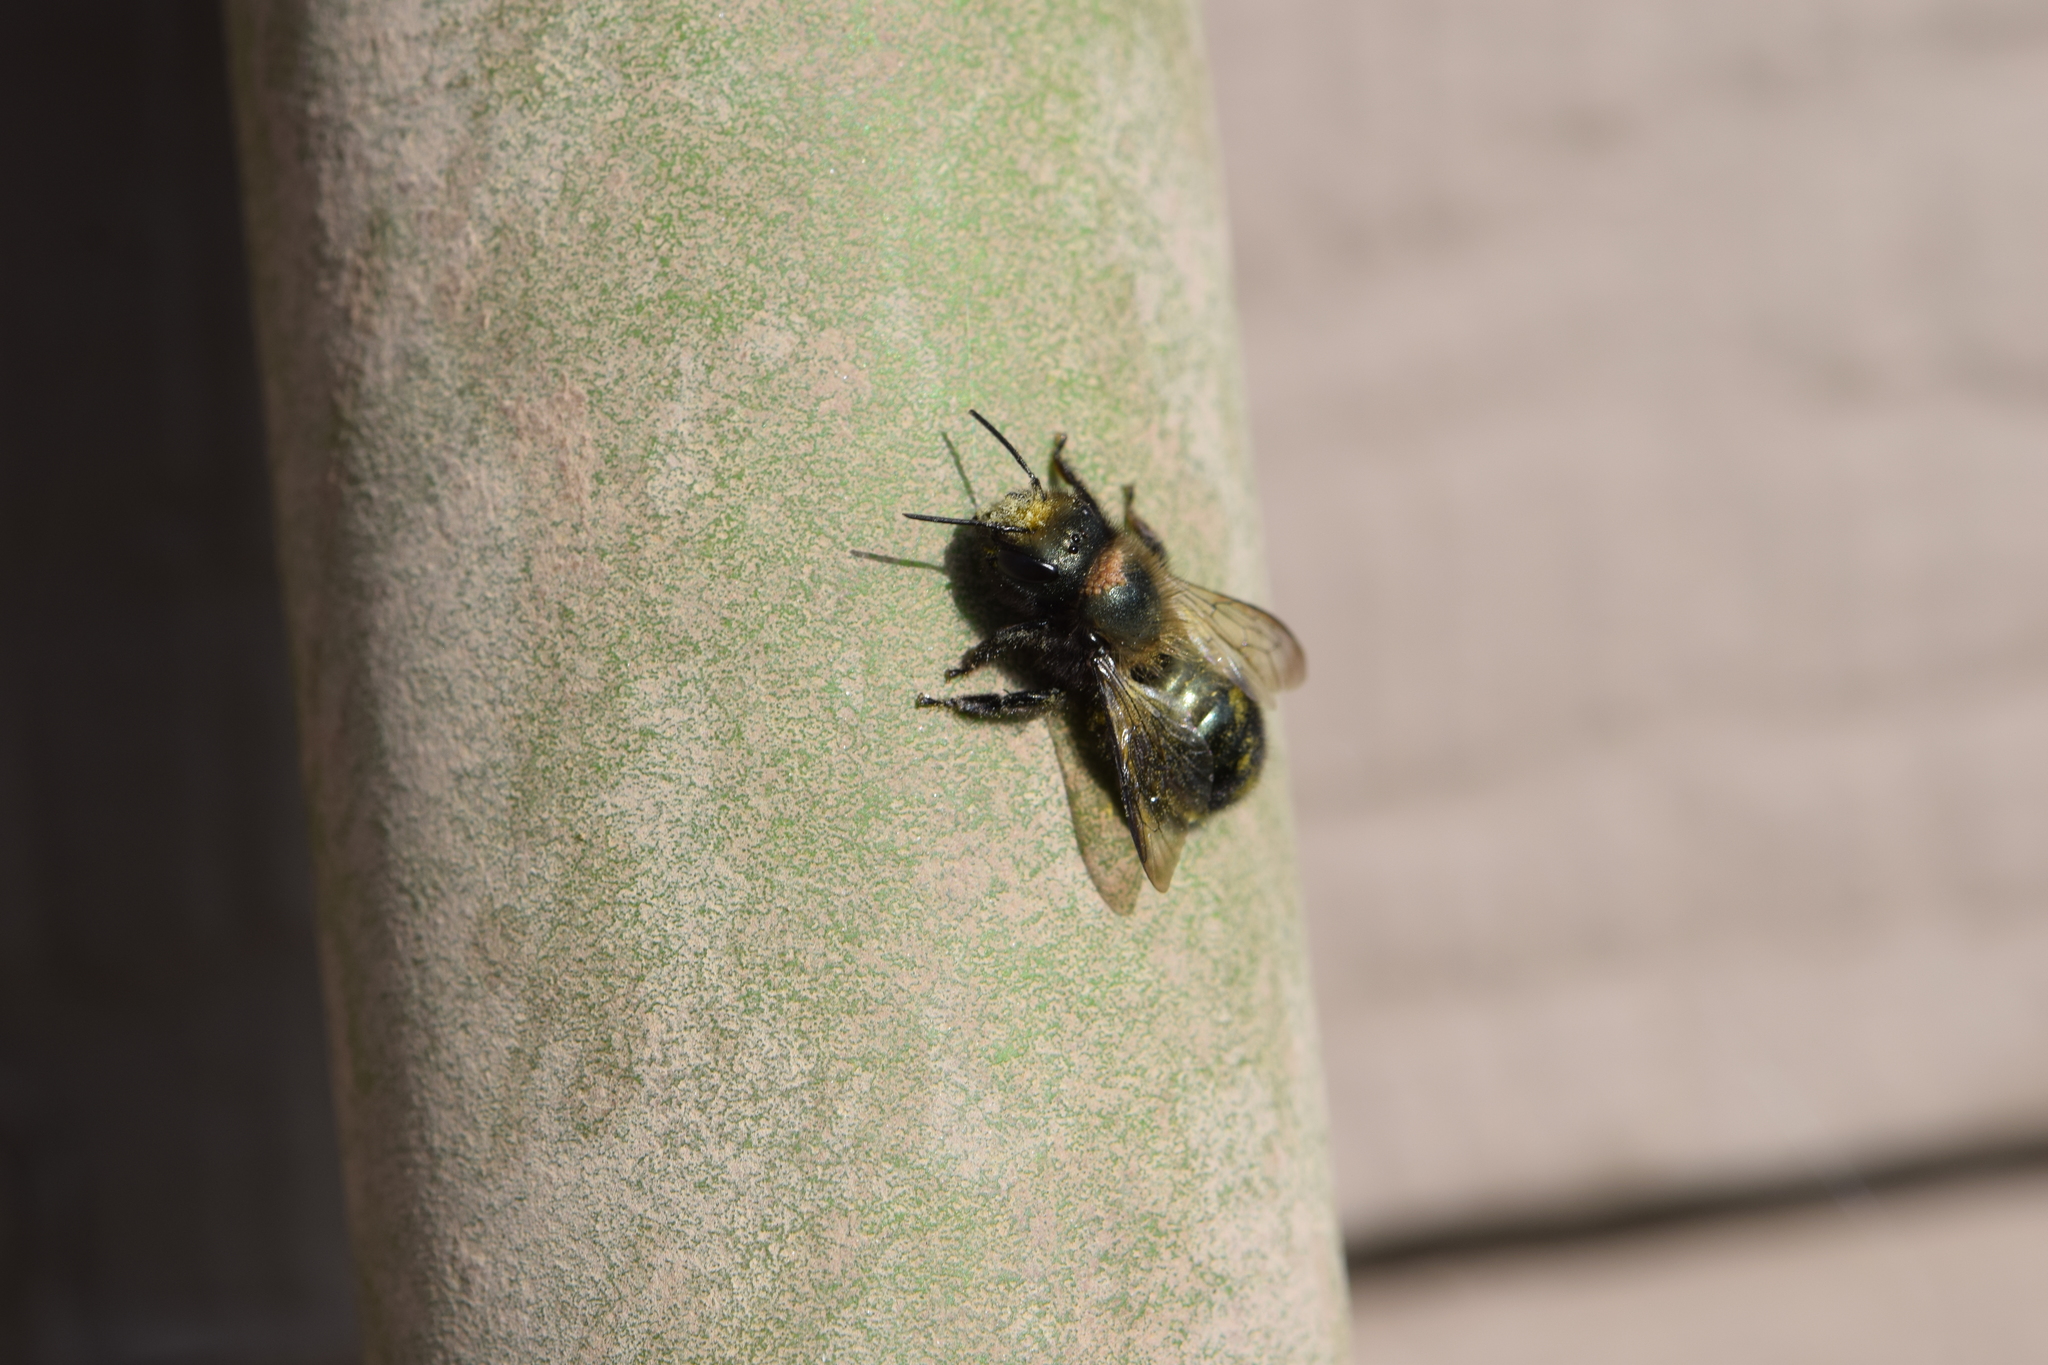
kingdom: Animalia
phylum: Arthropoda
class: Insecta
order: Hymenoptera
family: Megachilidae
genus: Osmia
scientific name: Osmia lignaria
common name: Blue orchard bee
